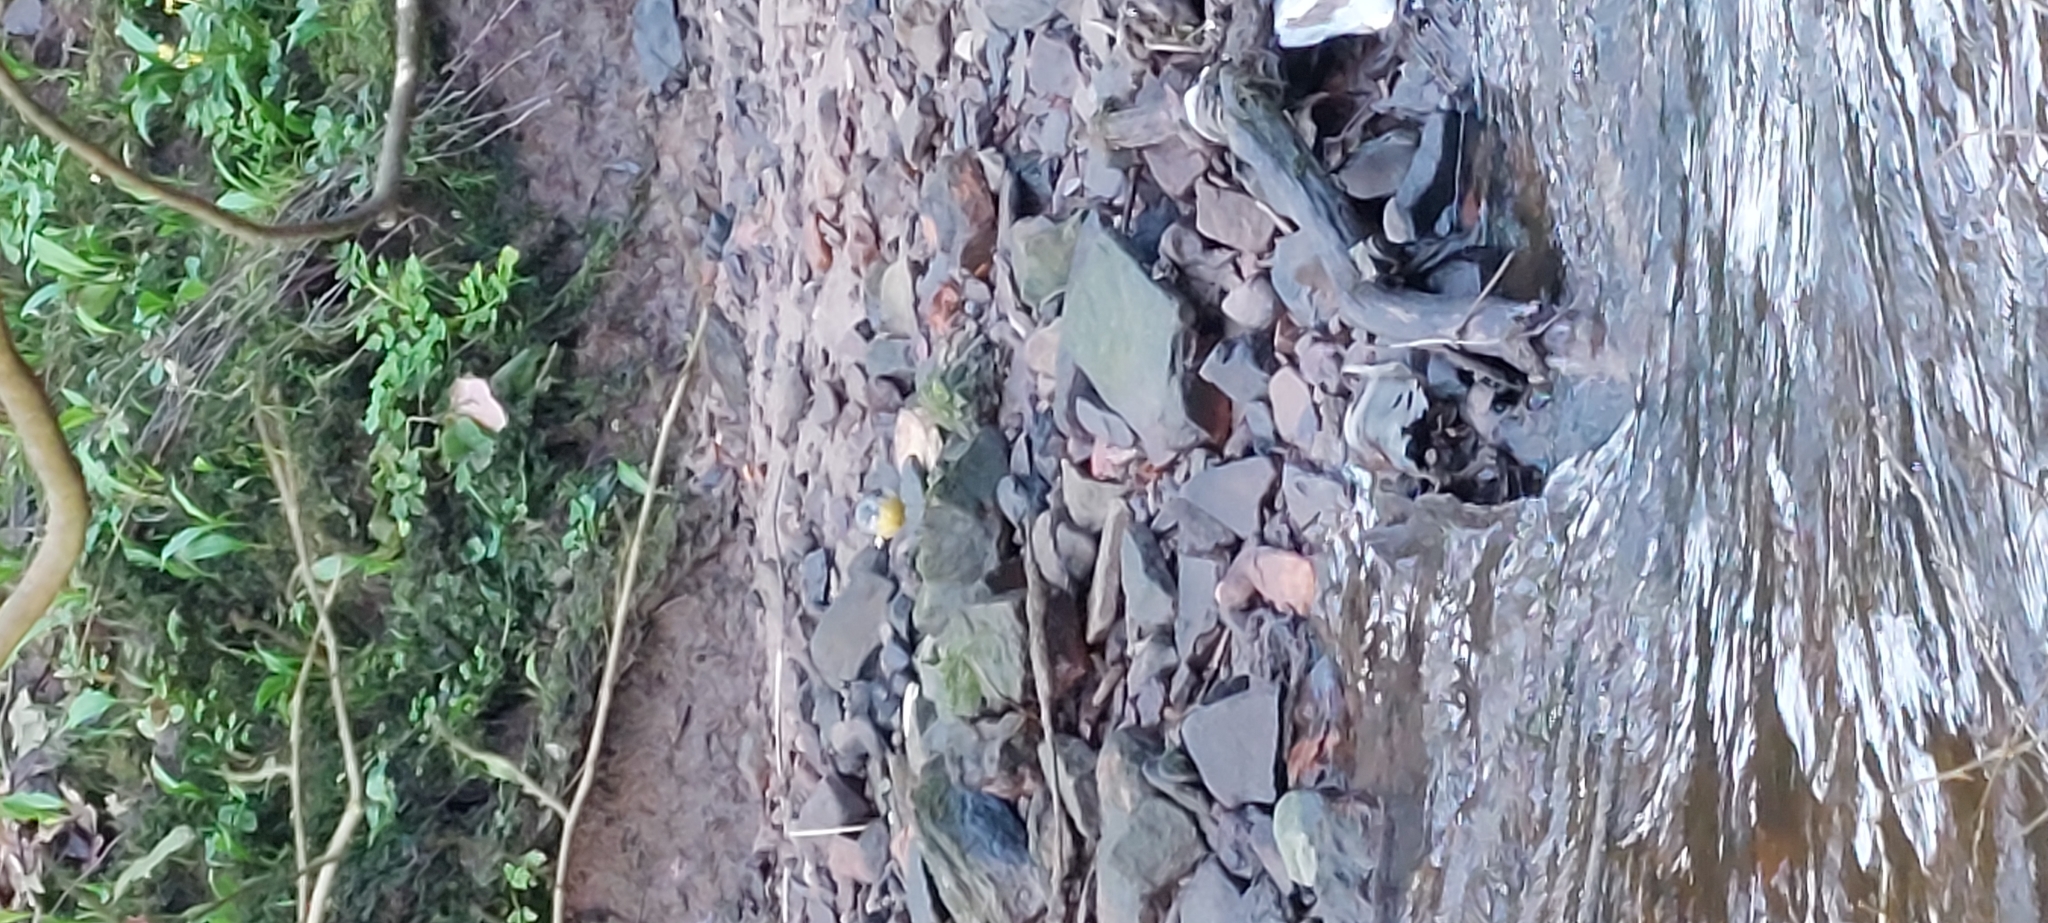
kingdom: Animalia
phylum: Chordata
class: Aves
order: Passeriformes
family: Motacillidae
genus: Motacilla
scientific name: Motacilla cinerea
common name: Grey wagtail
